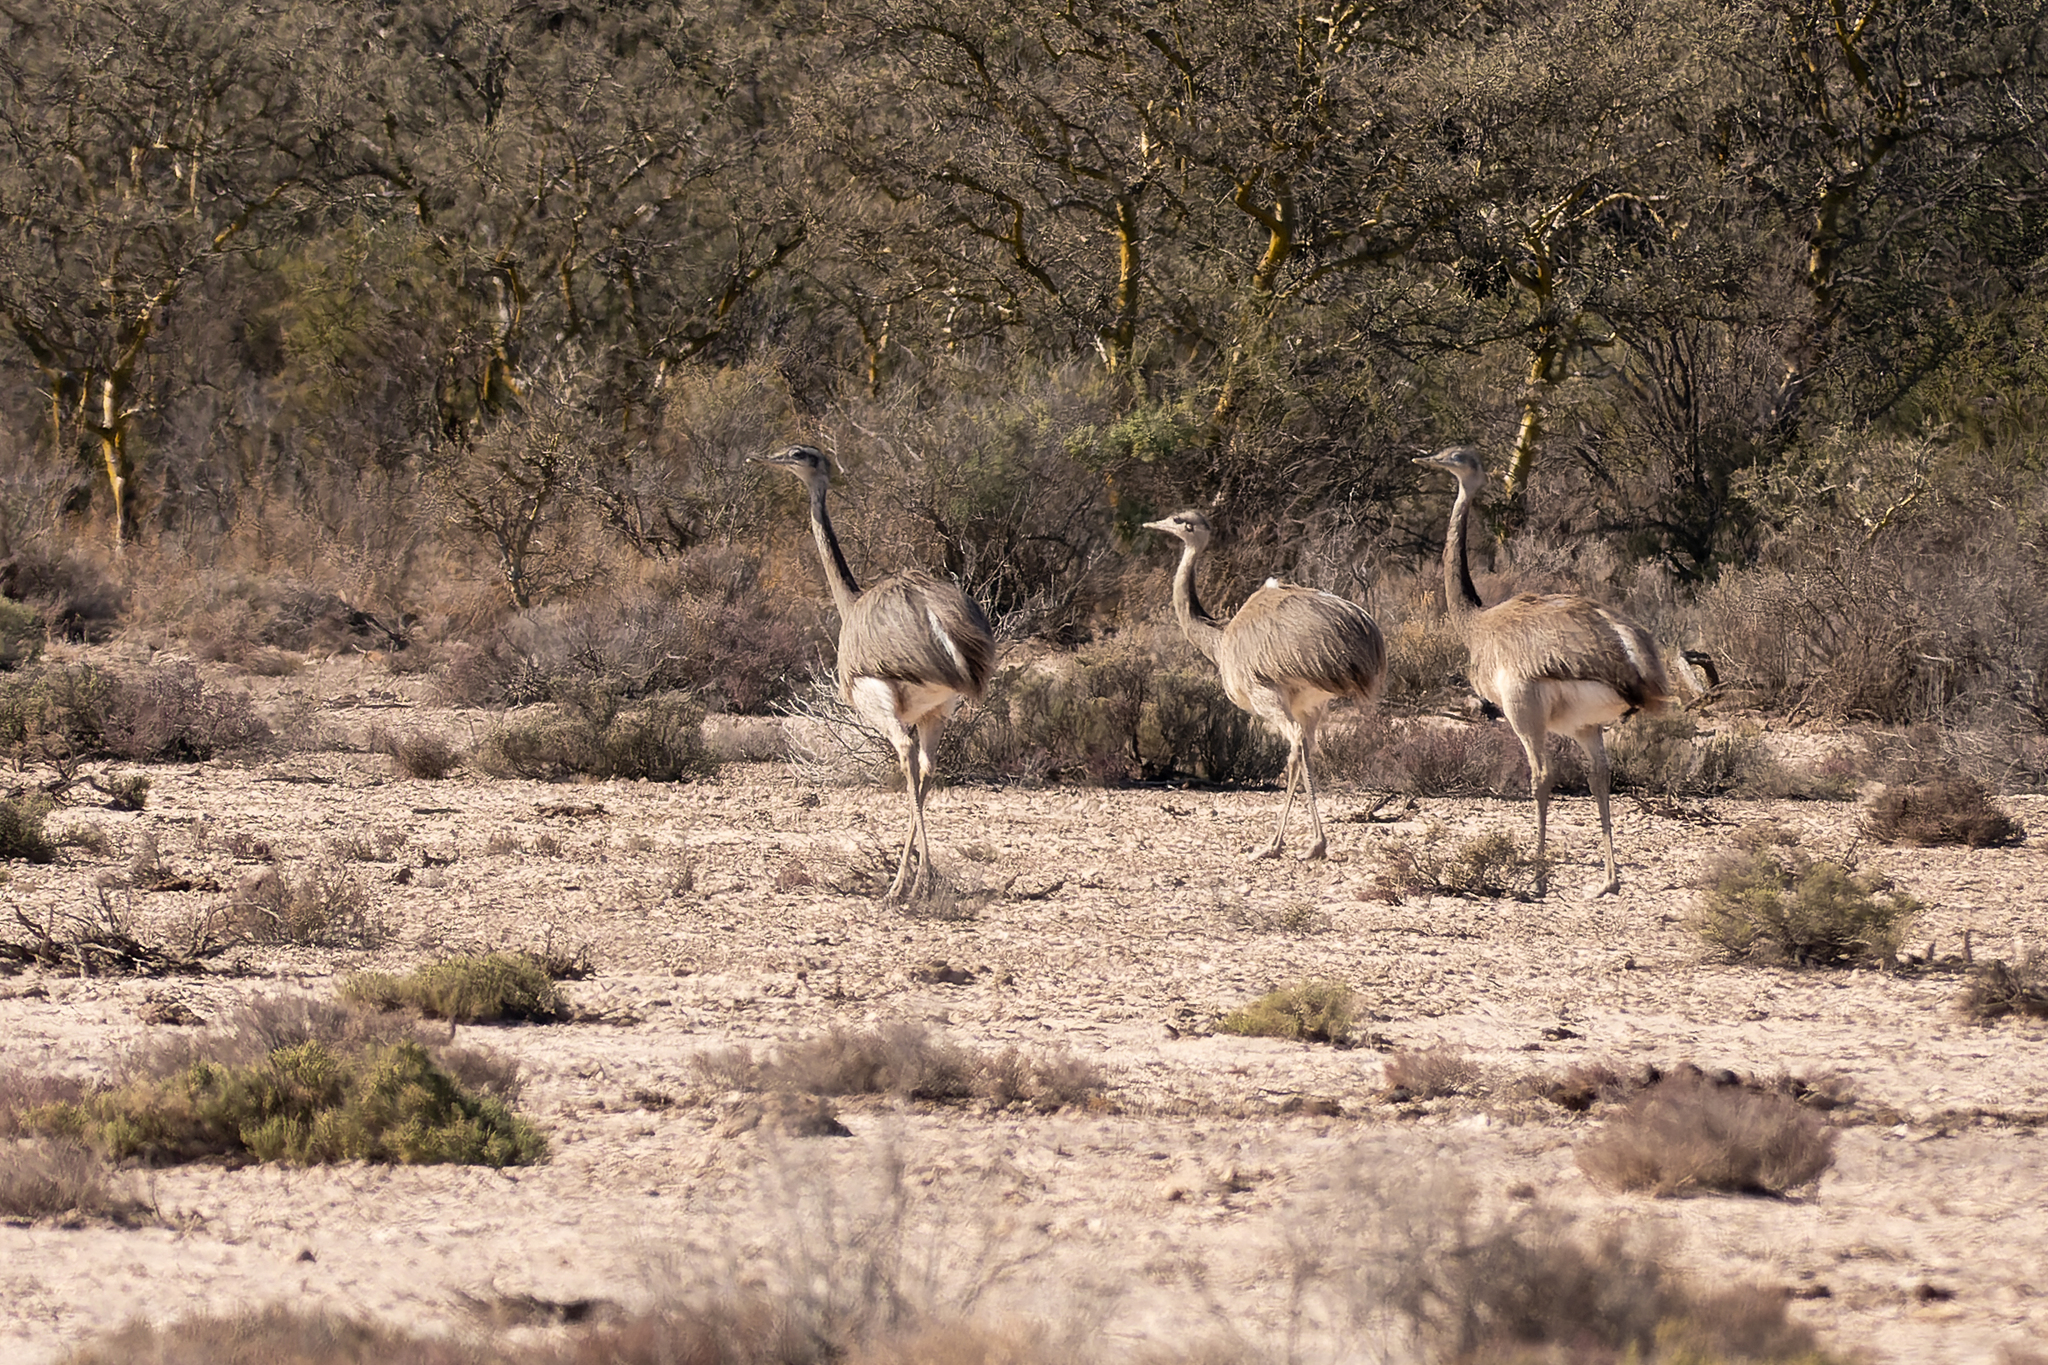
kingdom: Animalia
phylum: Chordata
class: Aves
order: Rheiformes
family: Rheidae
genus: Rhea
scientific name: Rhea americana
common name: Greater rhea
